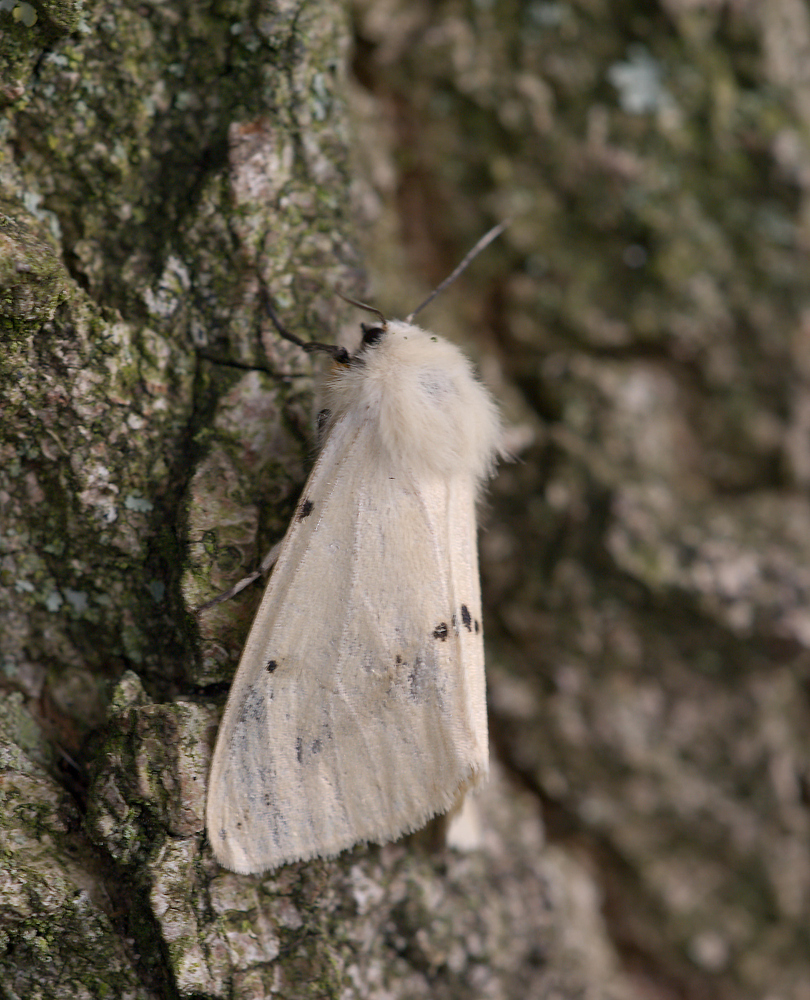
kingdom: Animalia
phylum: Arthropoda
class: Insecta
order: Lepidoptera
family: Erebidae
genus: Spilarctia
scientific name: Spilarctia lutea
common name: Buff ermine
